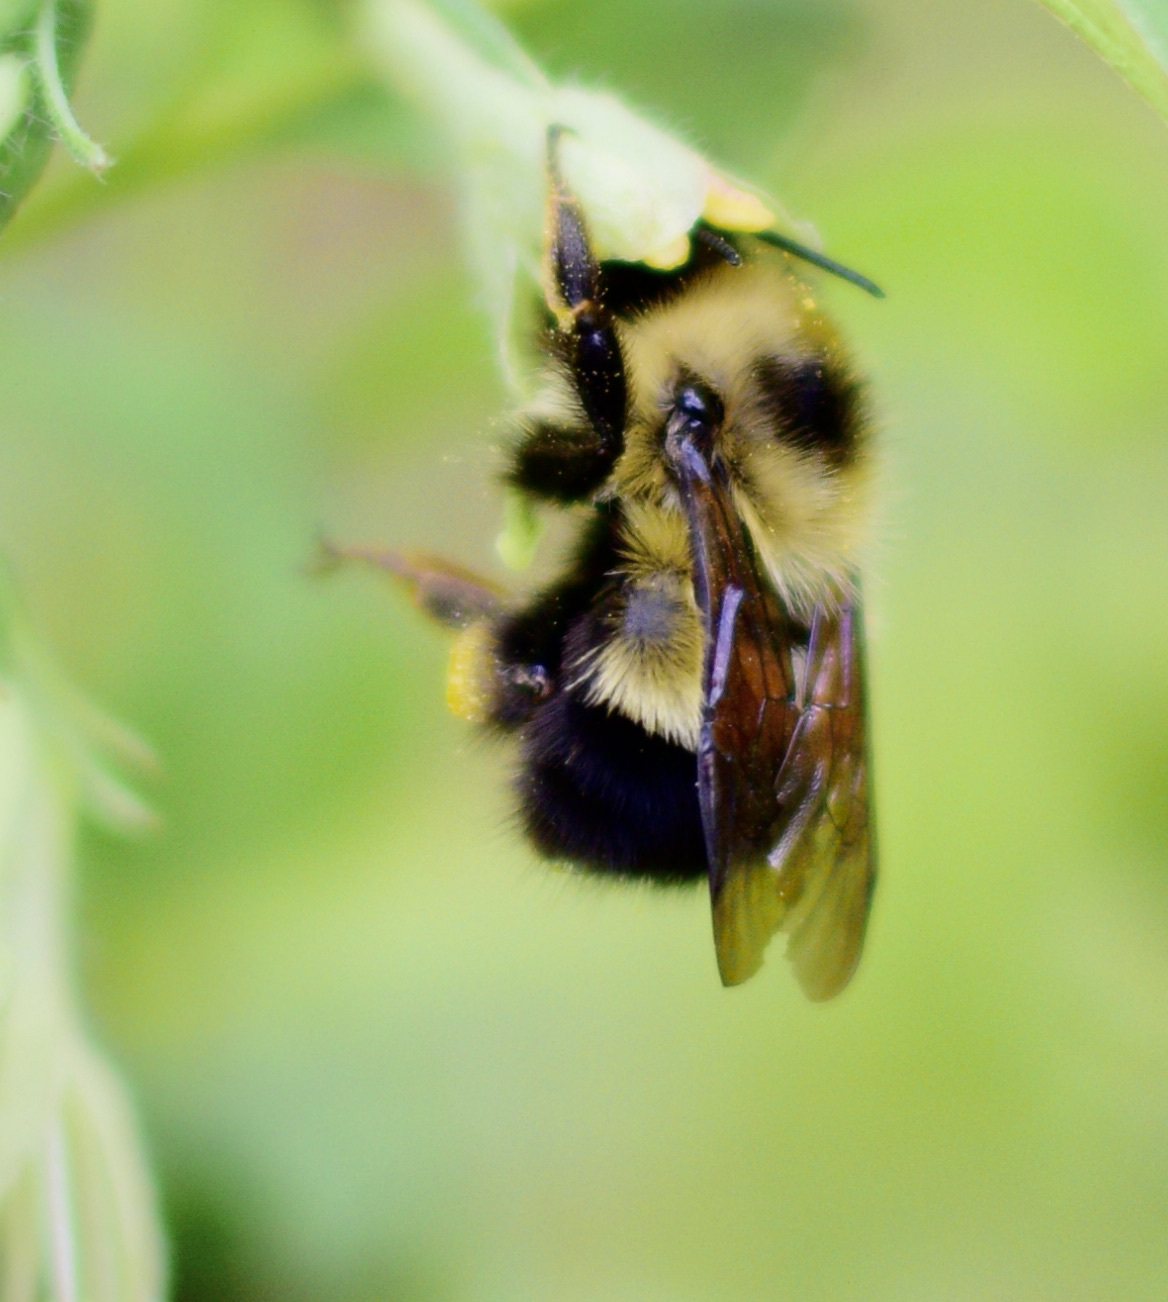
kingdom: Animalia
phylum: Arthropoda
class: Insecta
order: Hymenoptera
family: Apidae
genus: Pyrobombus
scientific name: Pyrobombus
